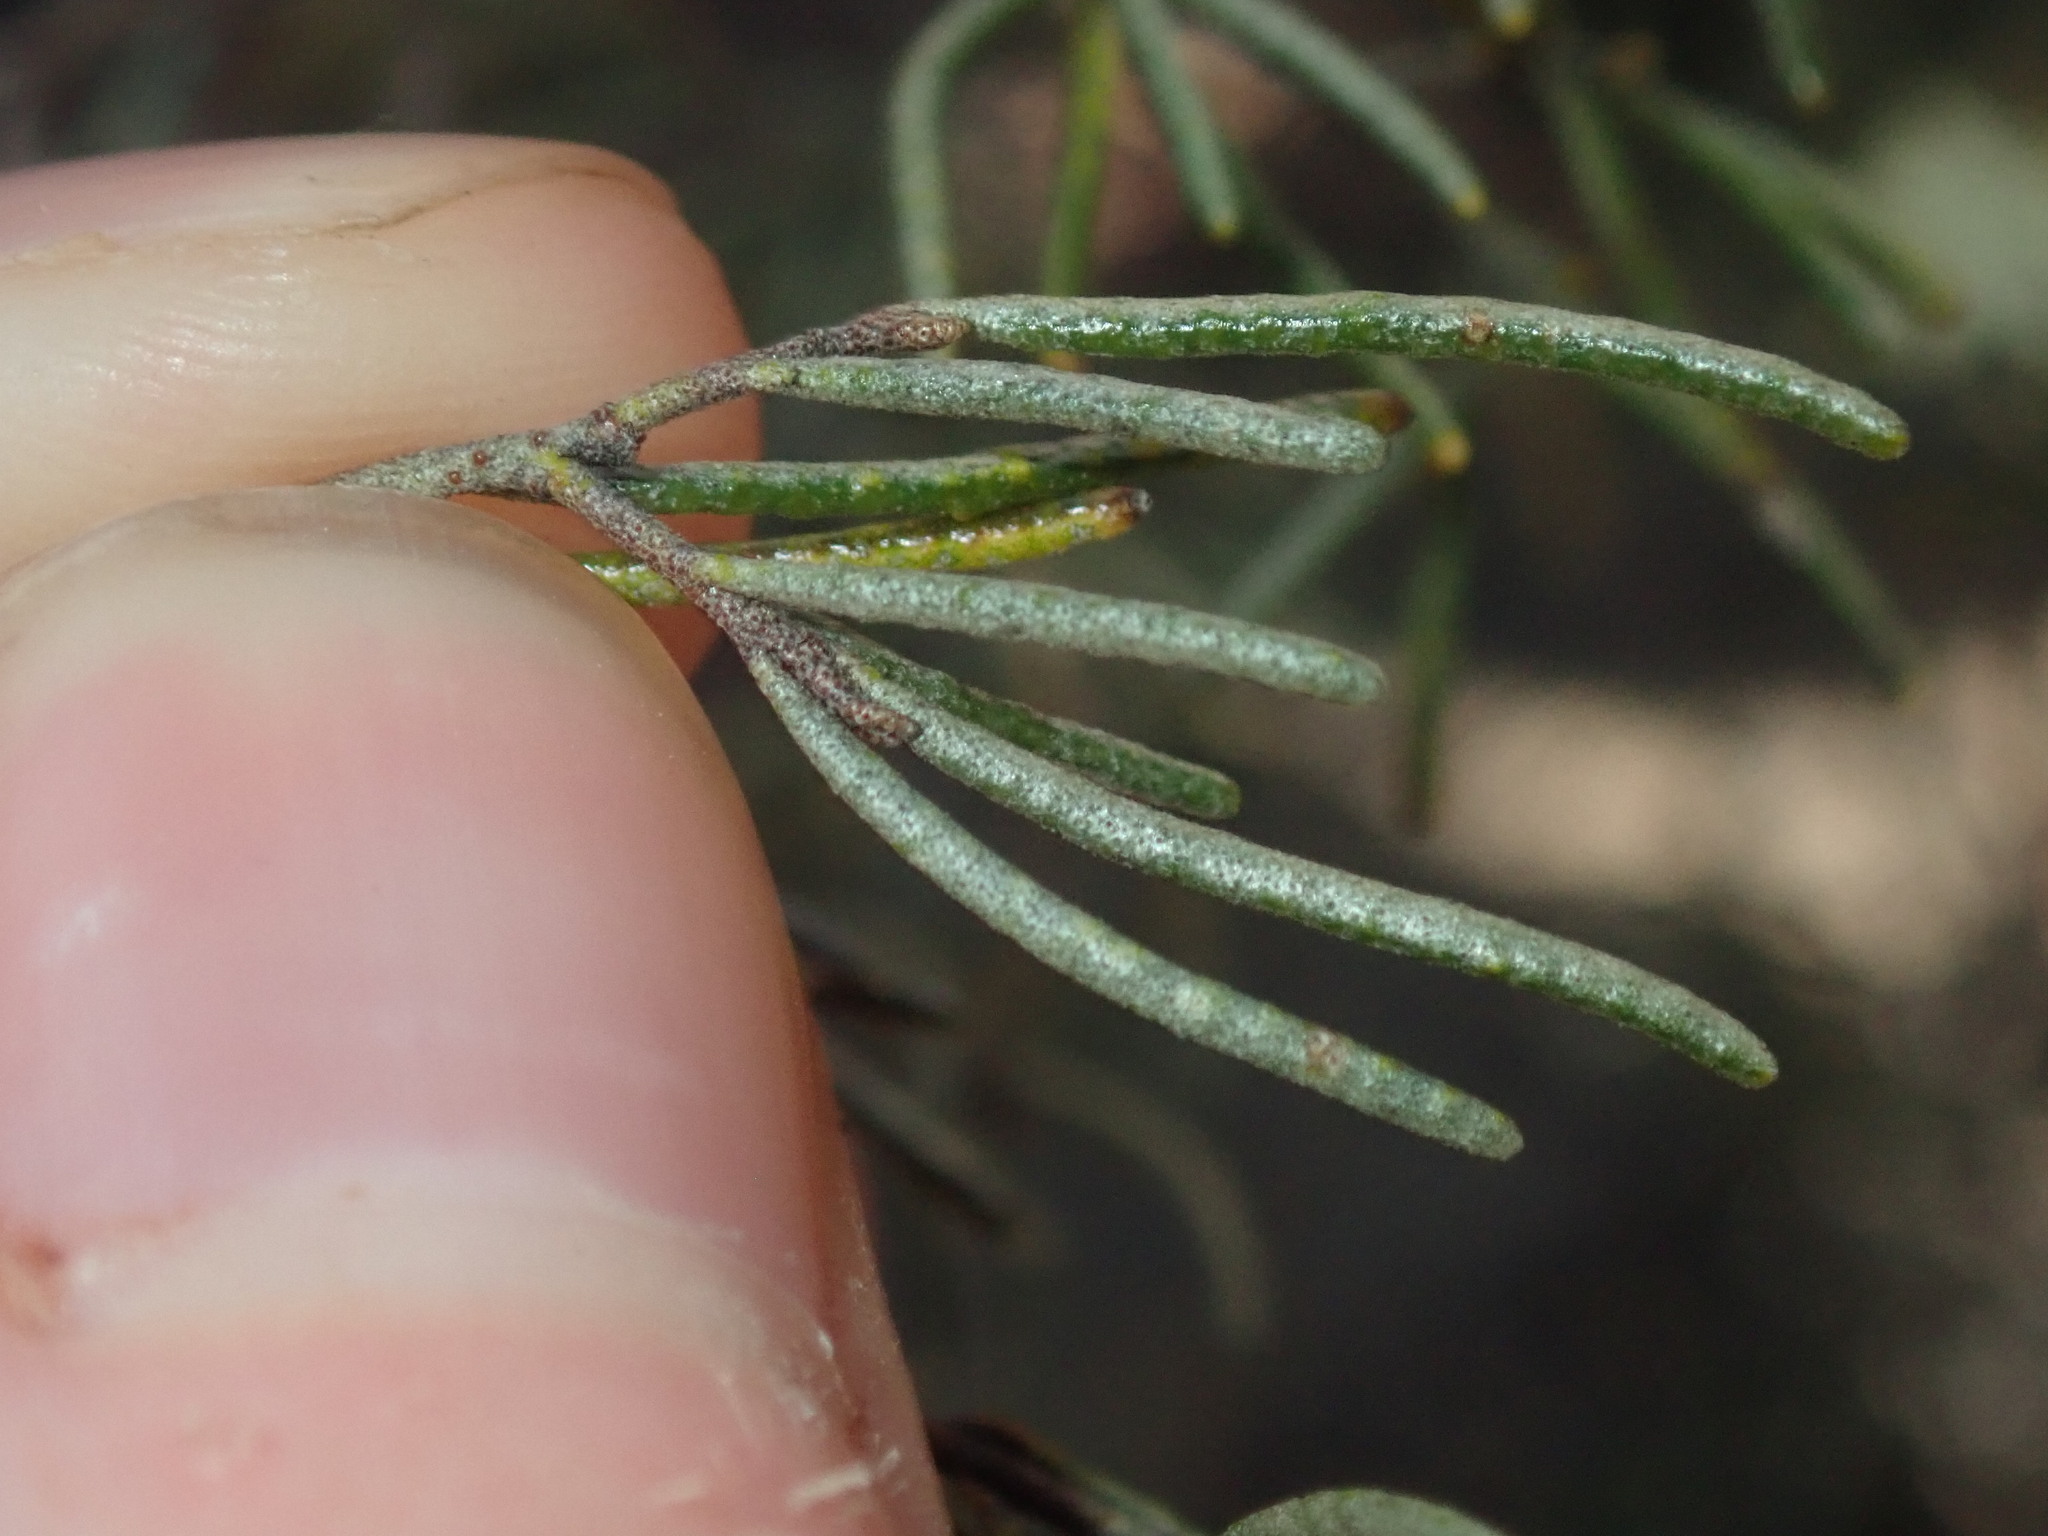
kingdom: Plantae
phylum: Tracheophyta
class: Magnoliopsida
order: Sapindales
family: Rutaceae
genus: Phebalium
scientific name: Phebalium filifolium
